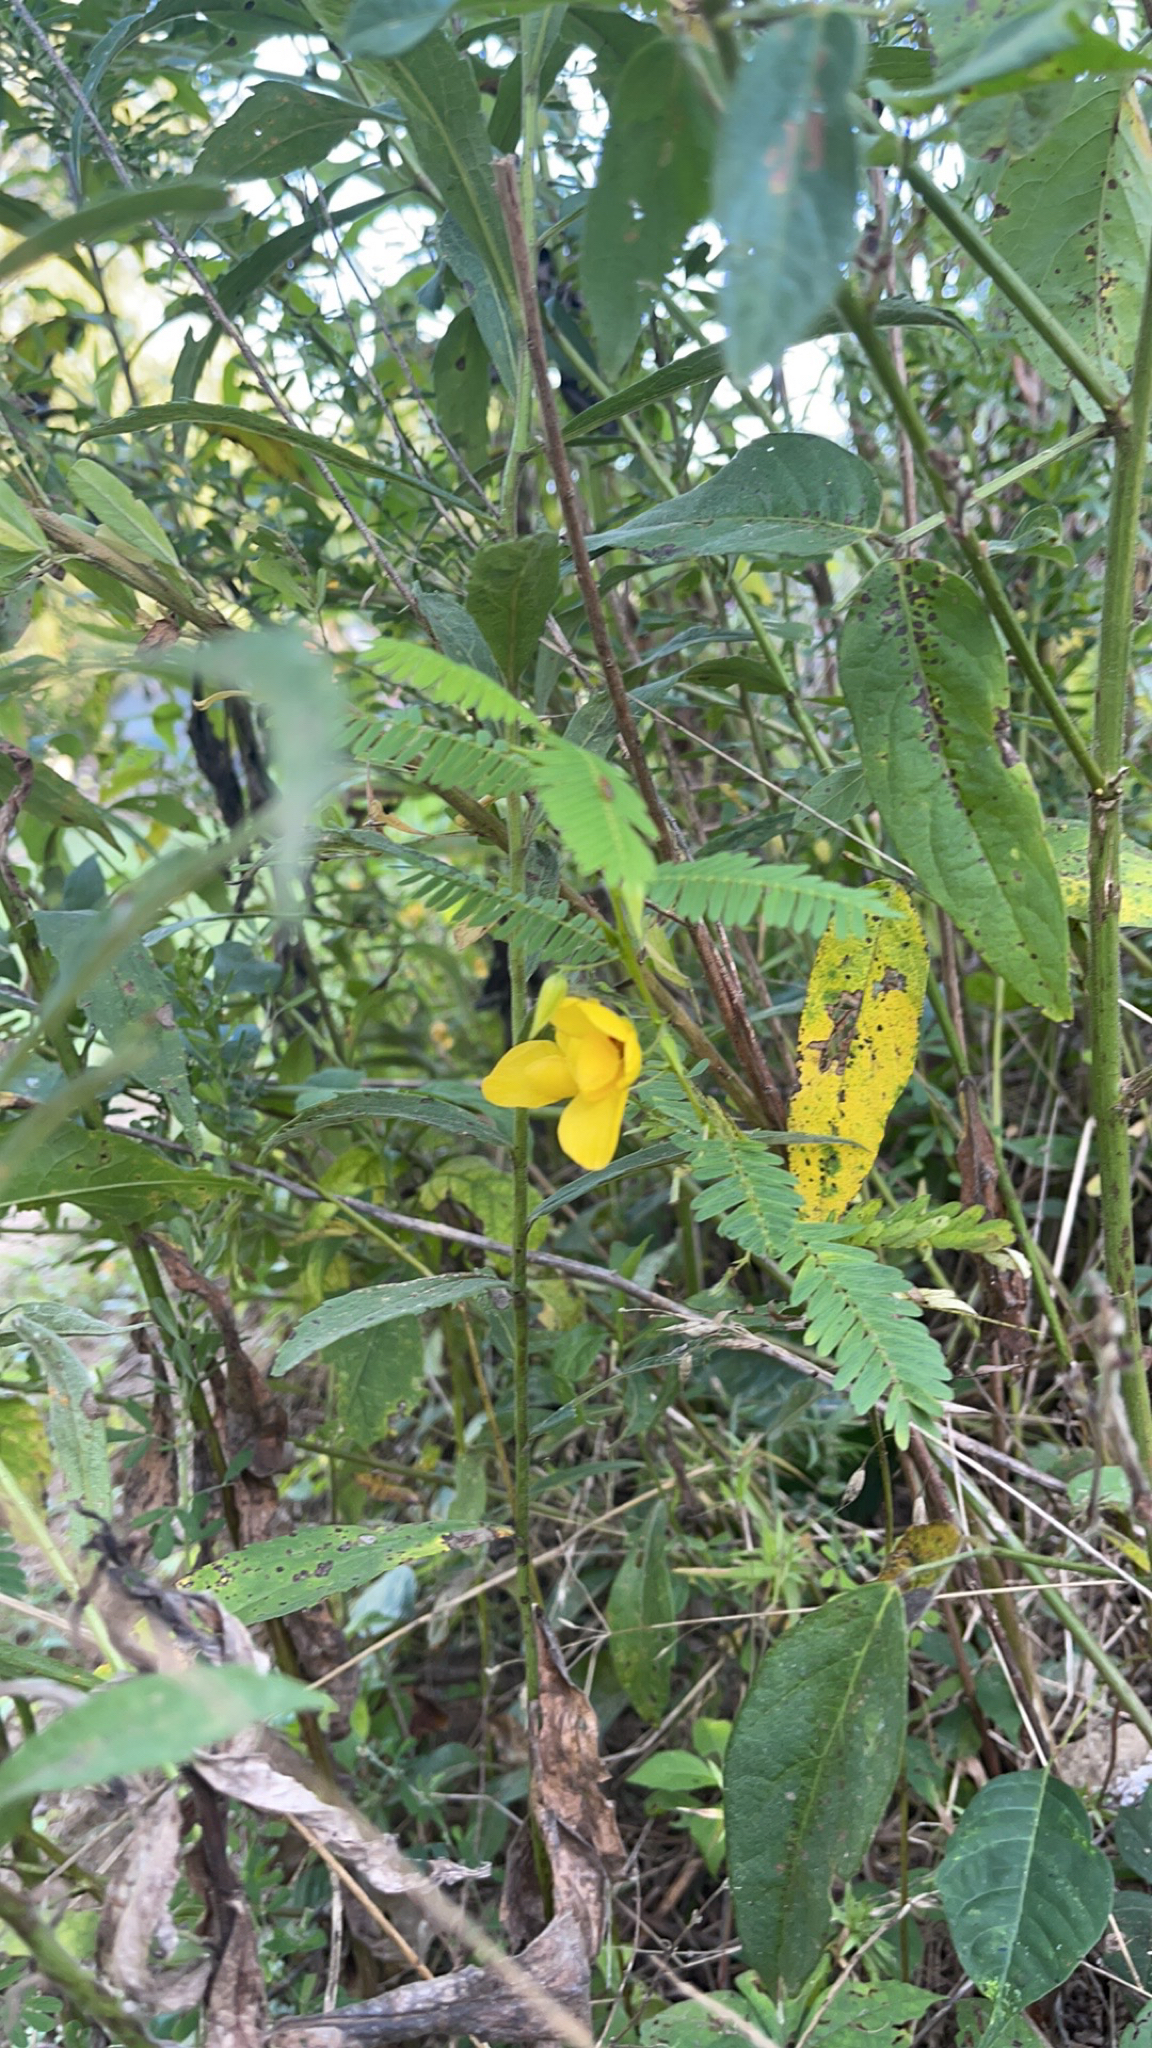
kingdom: Plantae
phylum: Tracheophyta
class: Magnoliopsida
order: Fabales
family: Fabaceae
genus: Chamaecrista
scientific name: Chamaecrista fasciculata
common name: Golden cassia
